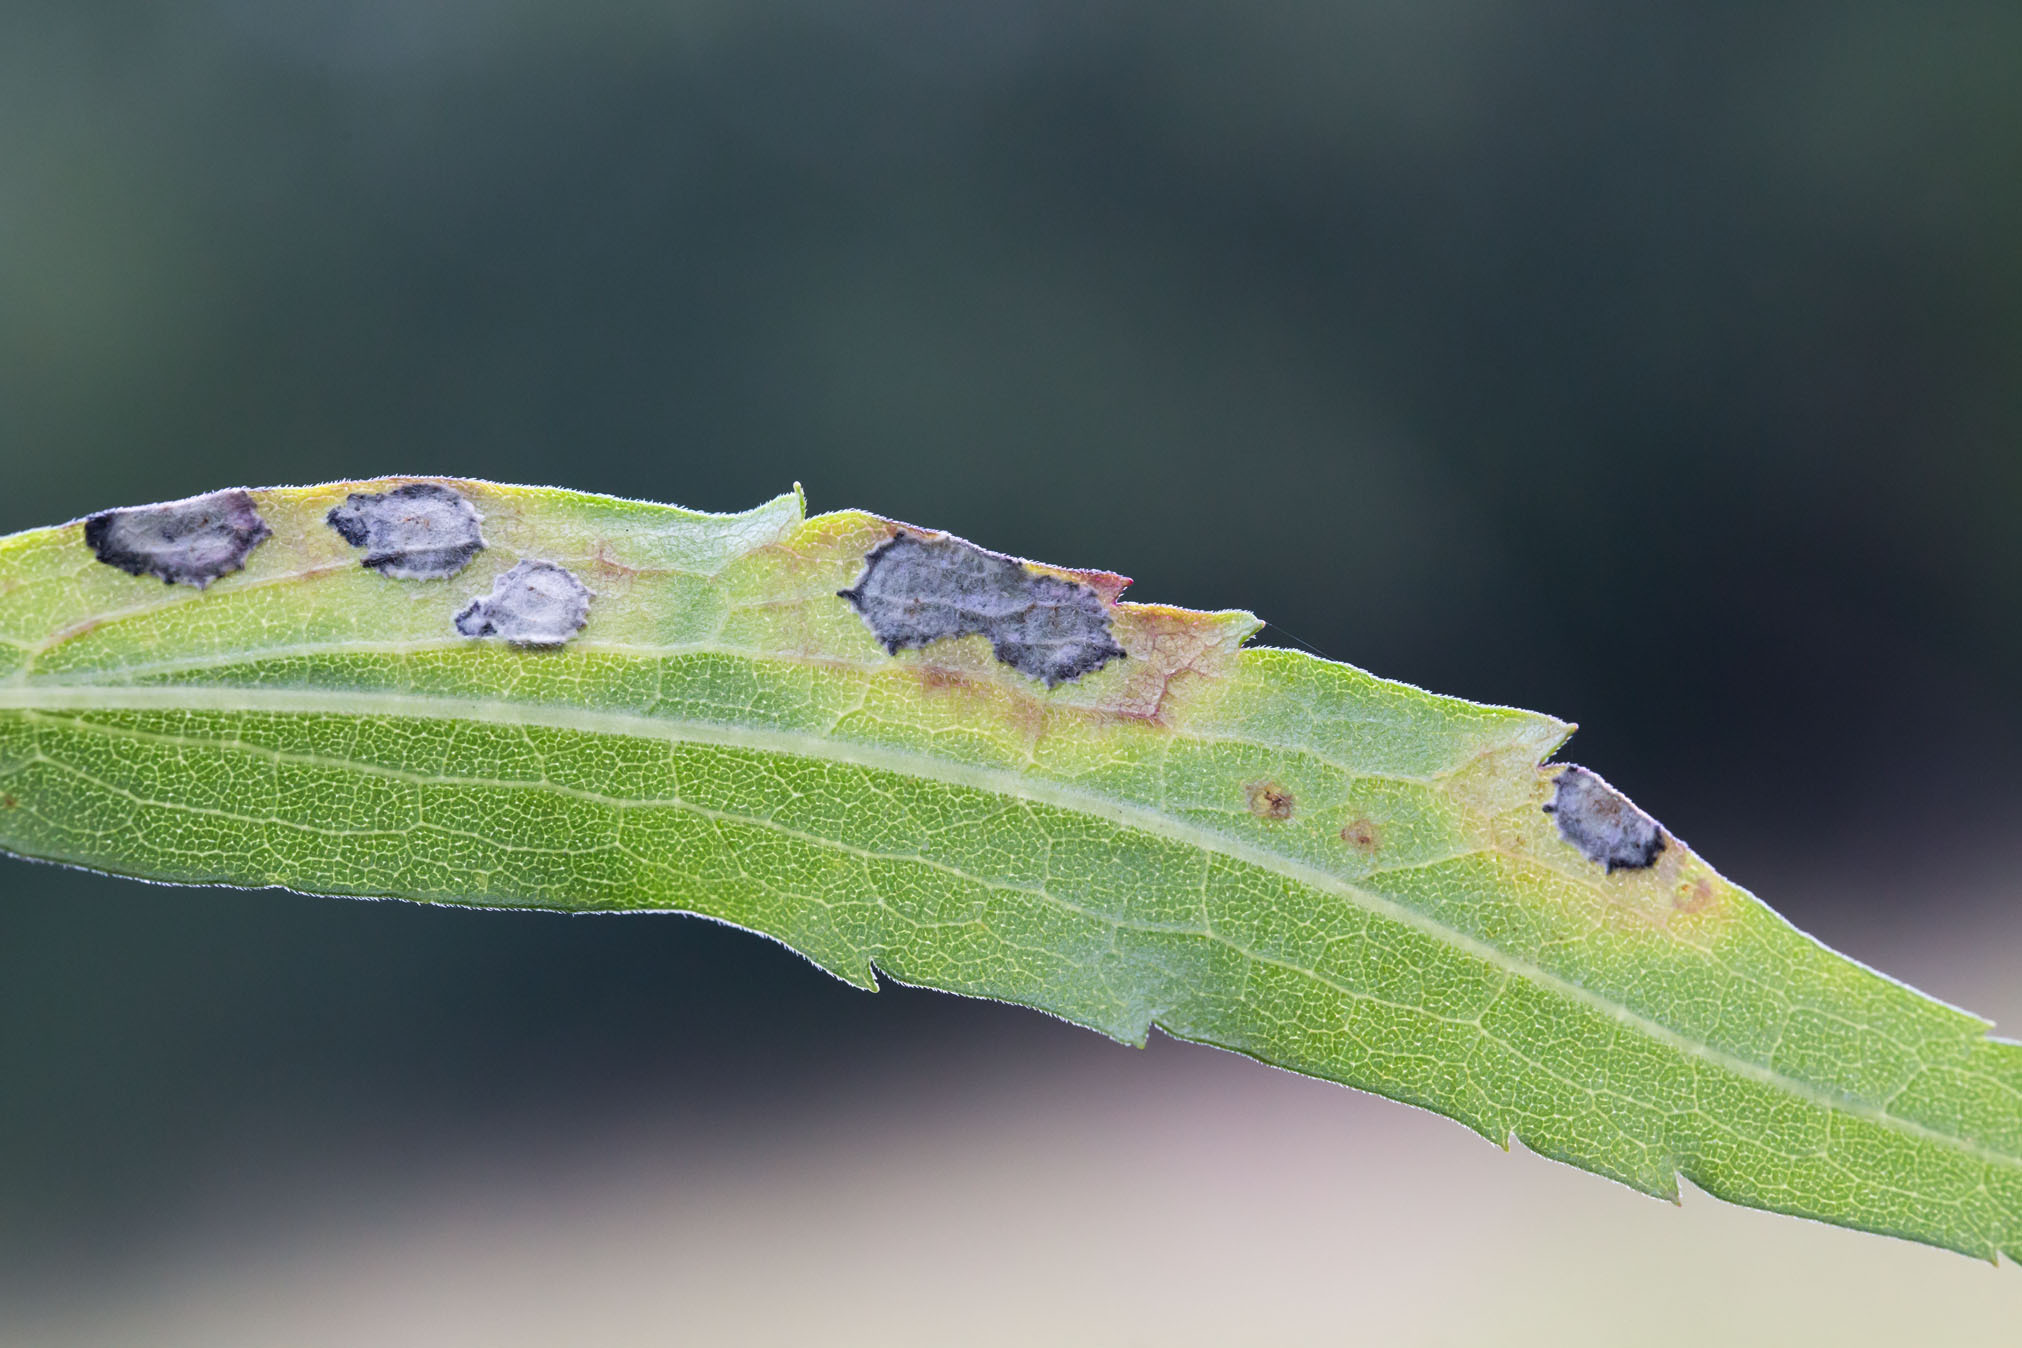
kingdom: Animalia
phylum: Arthropoda
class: Insecta
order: Diptera
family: Cecidomyiidae
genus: Asteromyia
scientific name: Asteromyia carbonifera
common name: Carbonifera goldenrod gall midge
